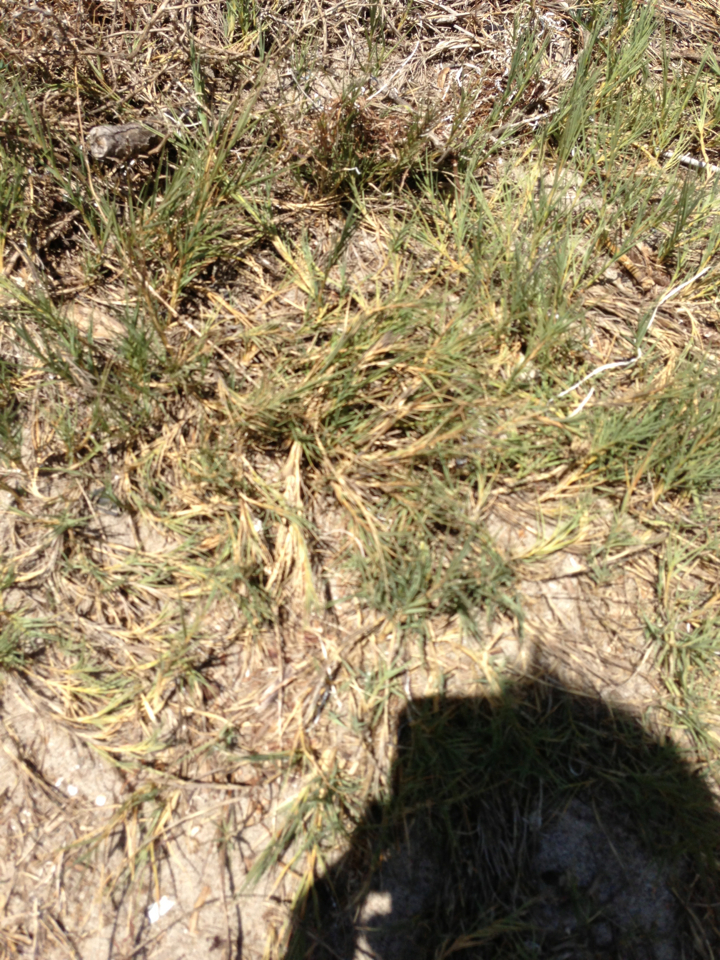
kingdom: Plantae
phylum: Tracheophyta
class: Liliopsida
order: Poales
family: Poaceae
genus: Distichlis
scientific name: Distichlis spicata
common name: Saltgrass
